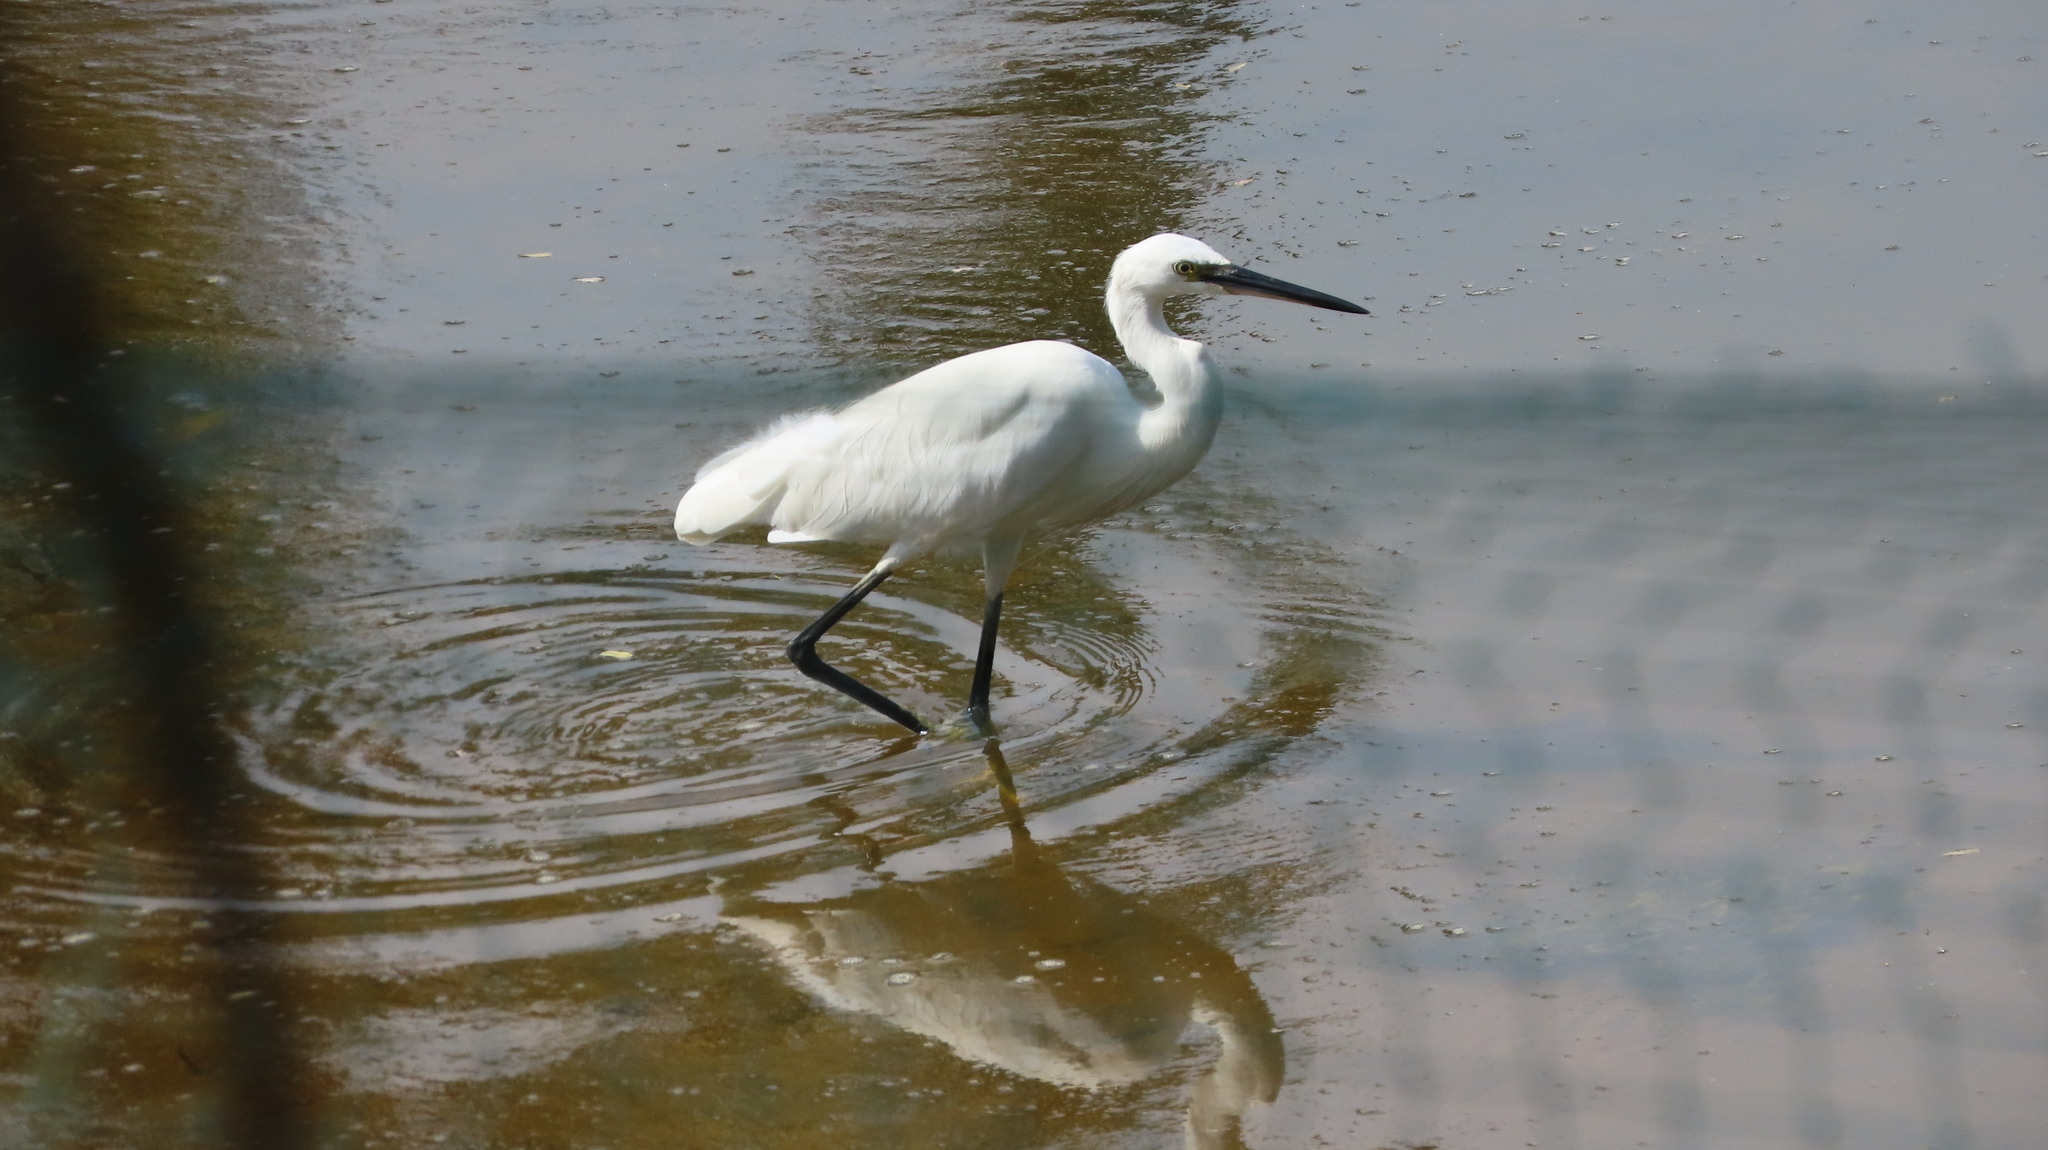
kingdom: Animalia
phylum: Chordata
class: Aves
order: Pelecaniformes
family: Ardeidae
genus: Egretta
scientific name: Egretta garzetta
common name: Little egret
